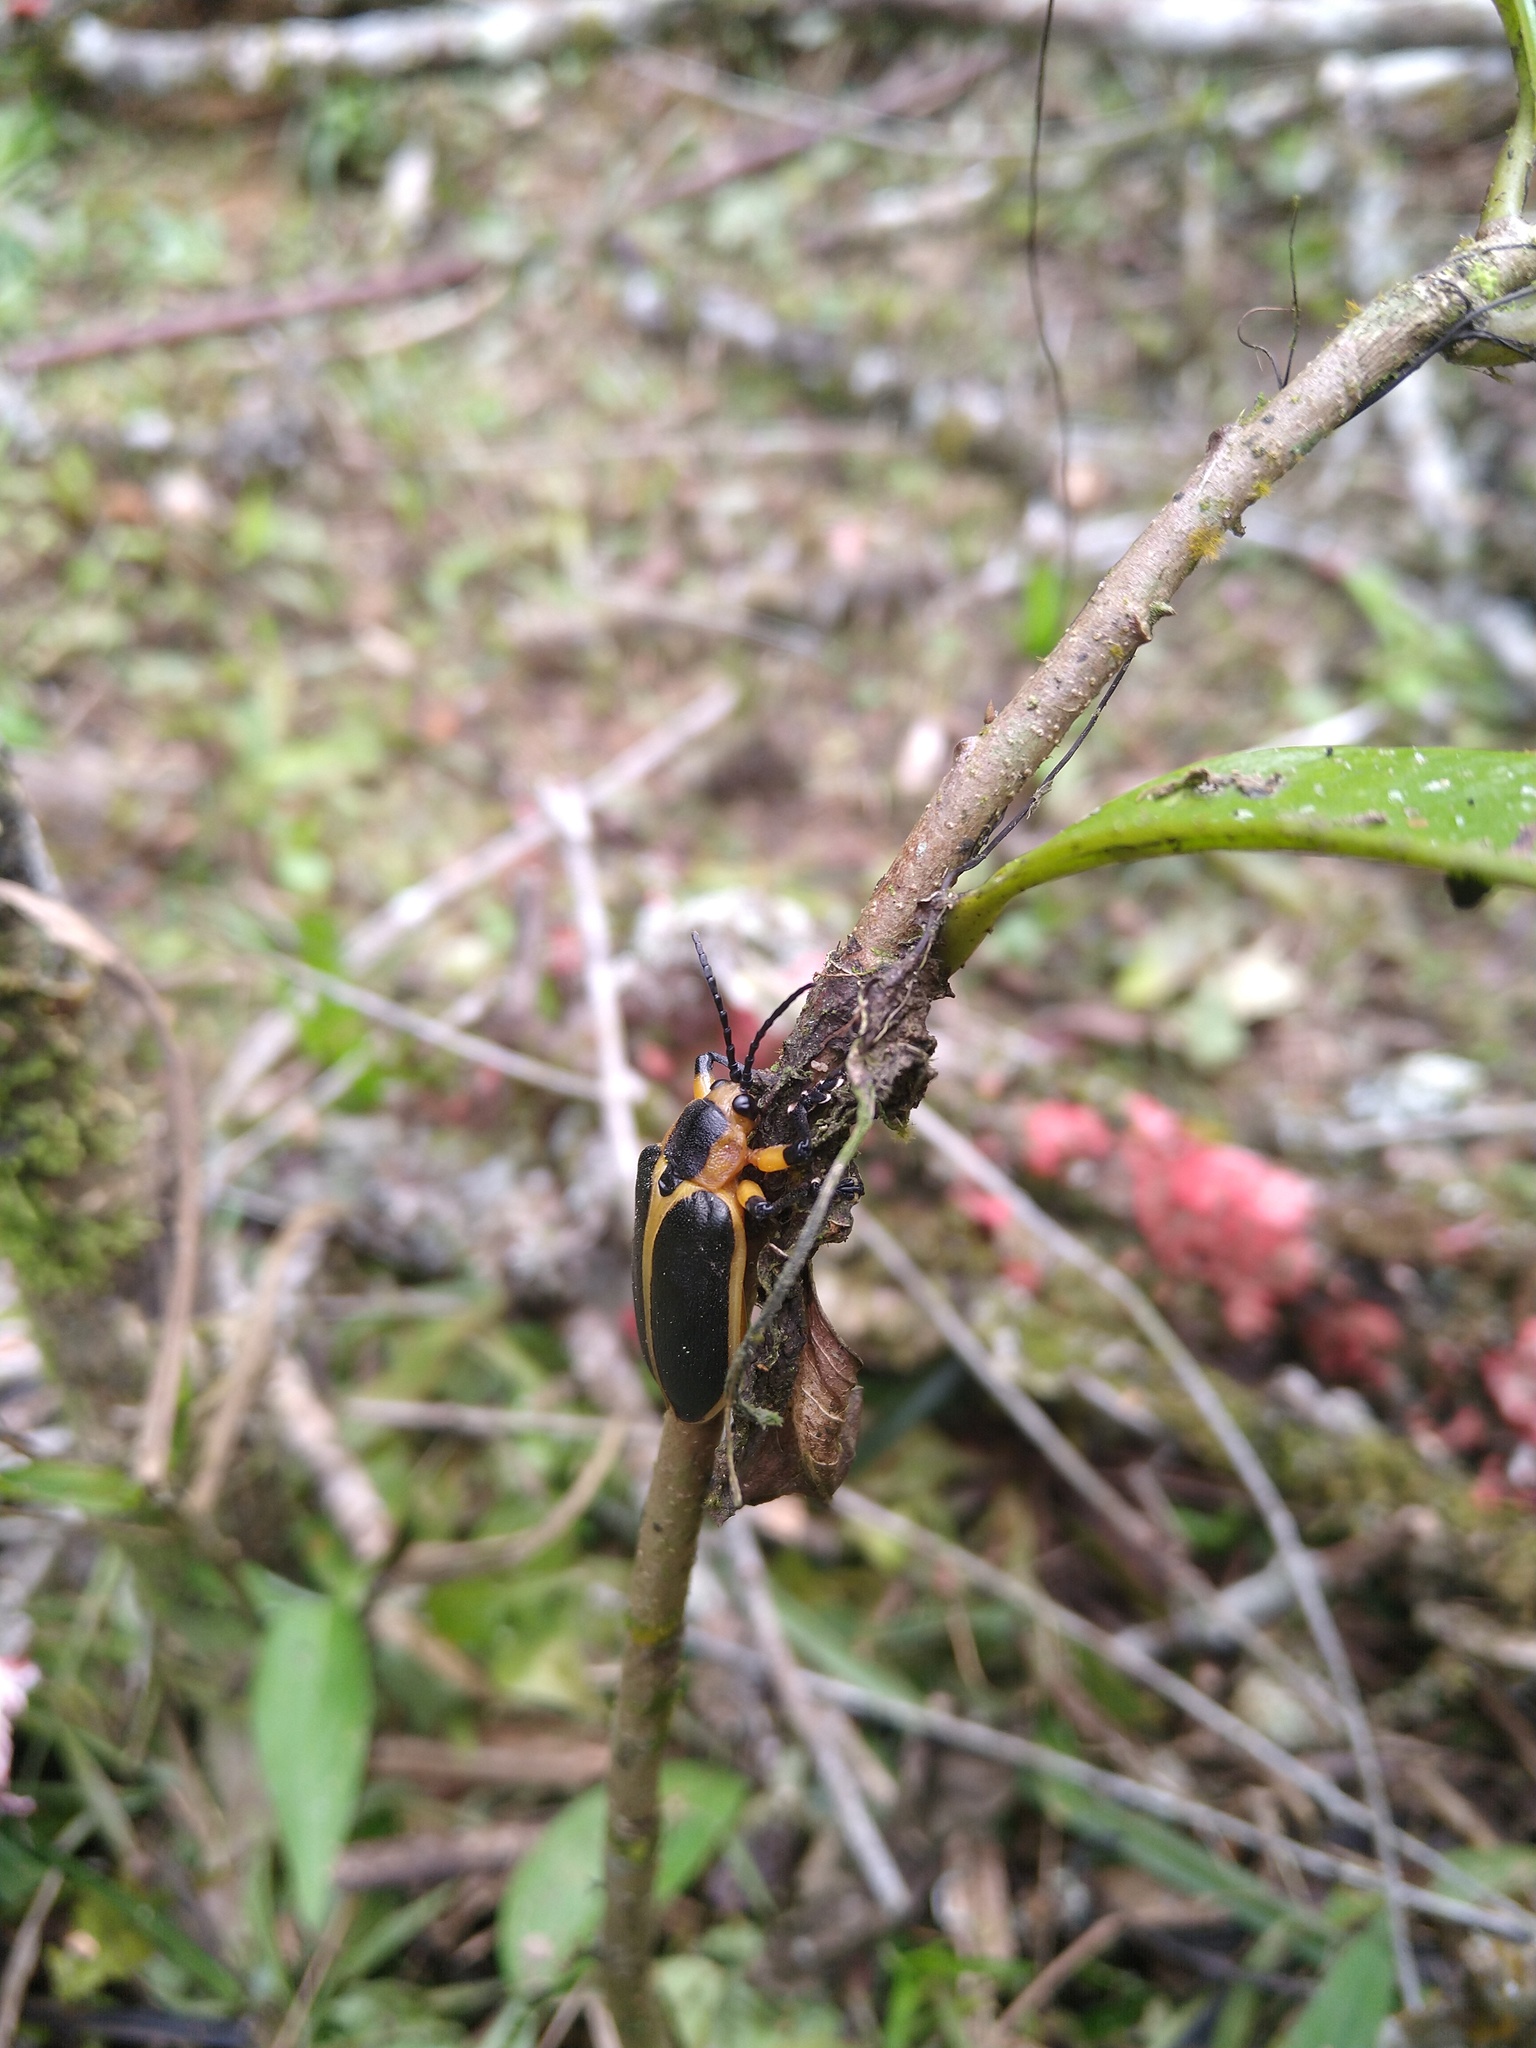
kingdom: Animalia
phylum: Arthropoda
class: Insecta
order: Coleoptera
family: Chrysomelidae
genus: Mecistomela
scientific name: Mecistomela marginata
